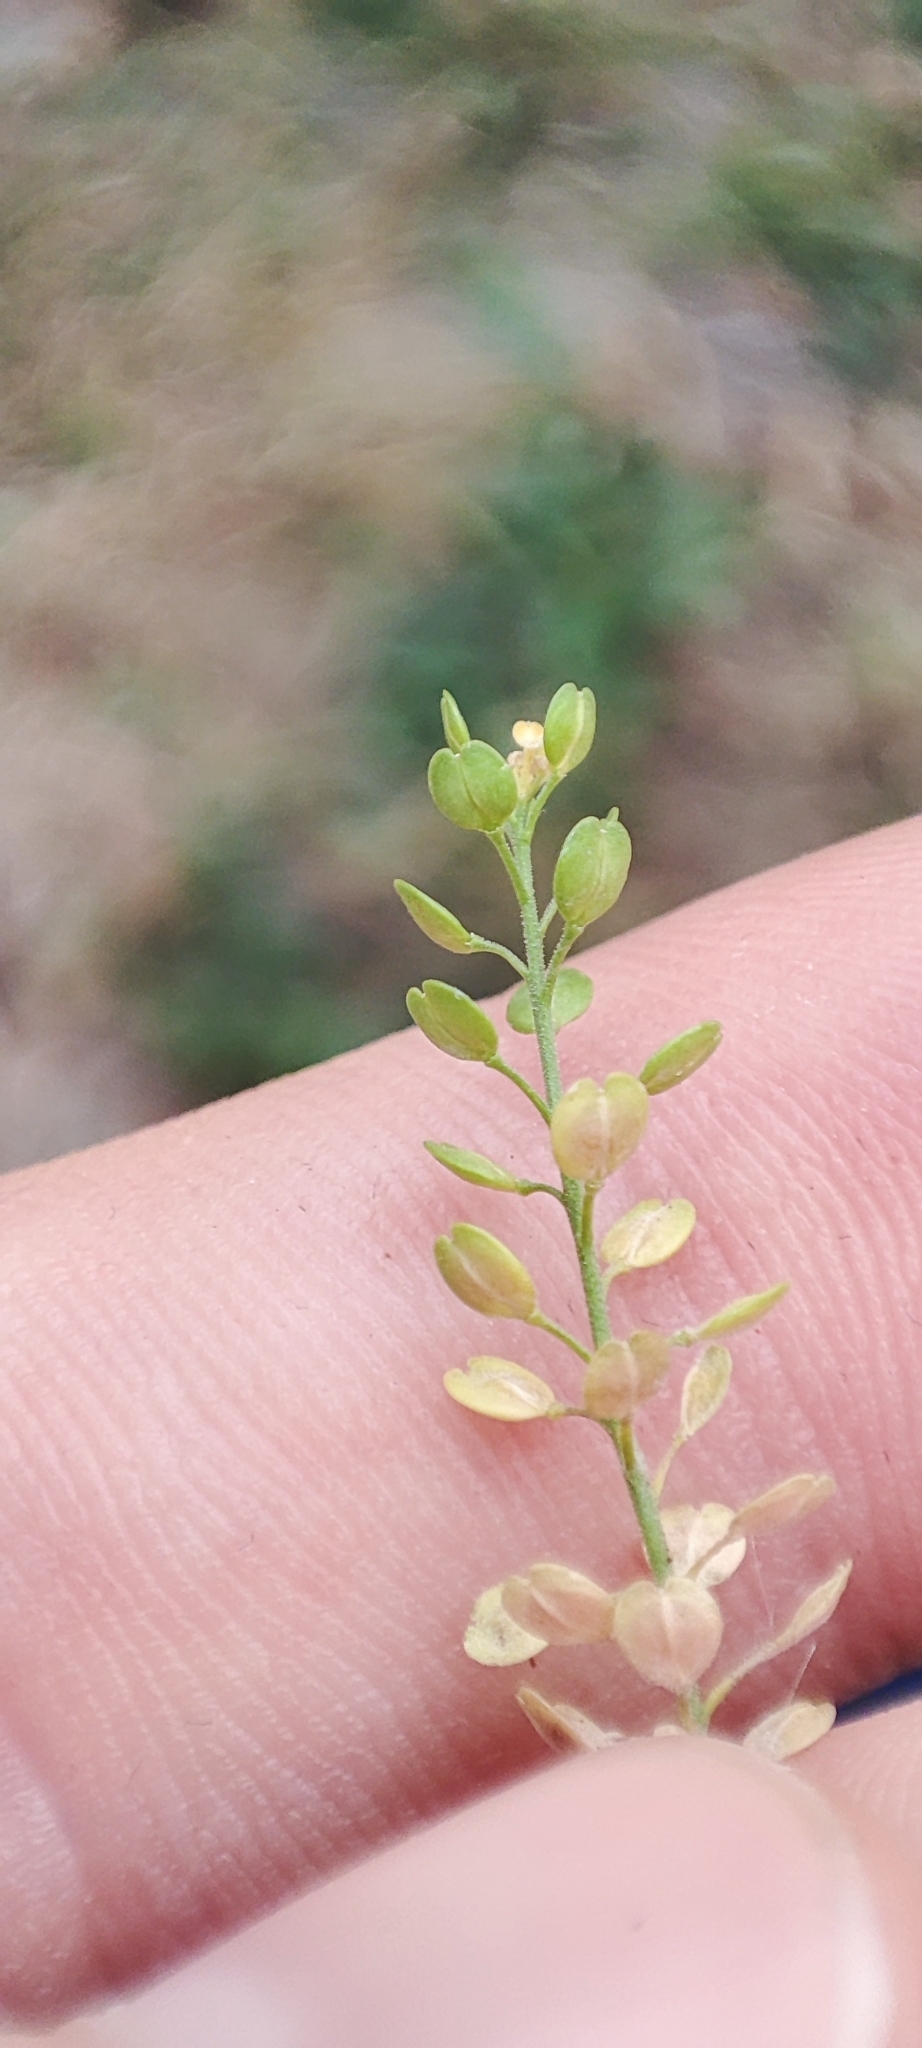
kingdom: Plantae
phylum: Tracheophyta
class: Magnoliopsida
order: Brassicales
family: Brassicaceae
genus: Lepidium
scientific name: Lepidium densiflorum
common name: Miner's pepperwort
